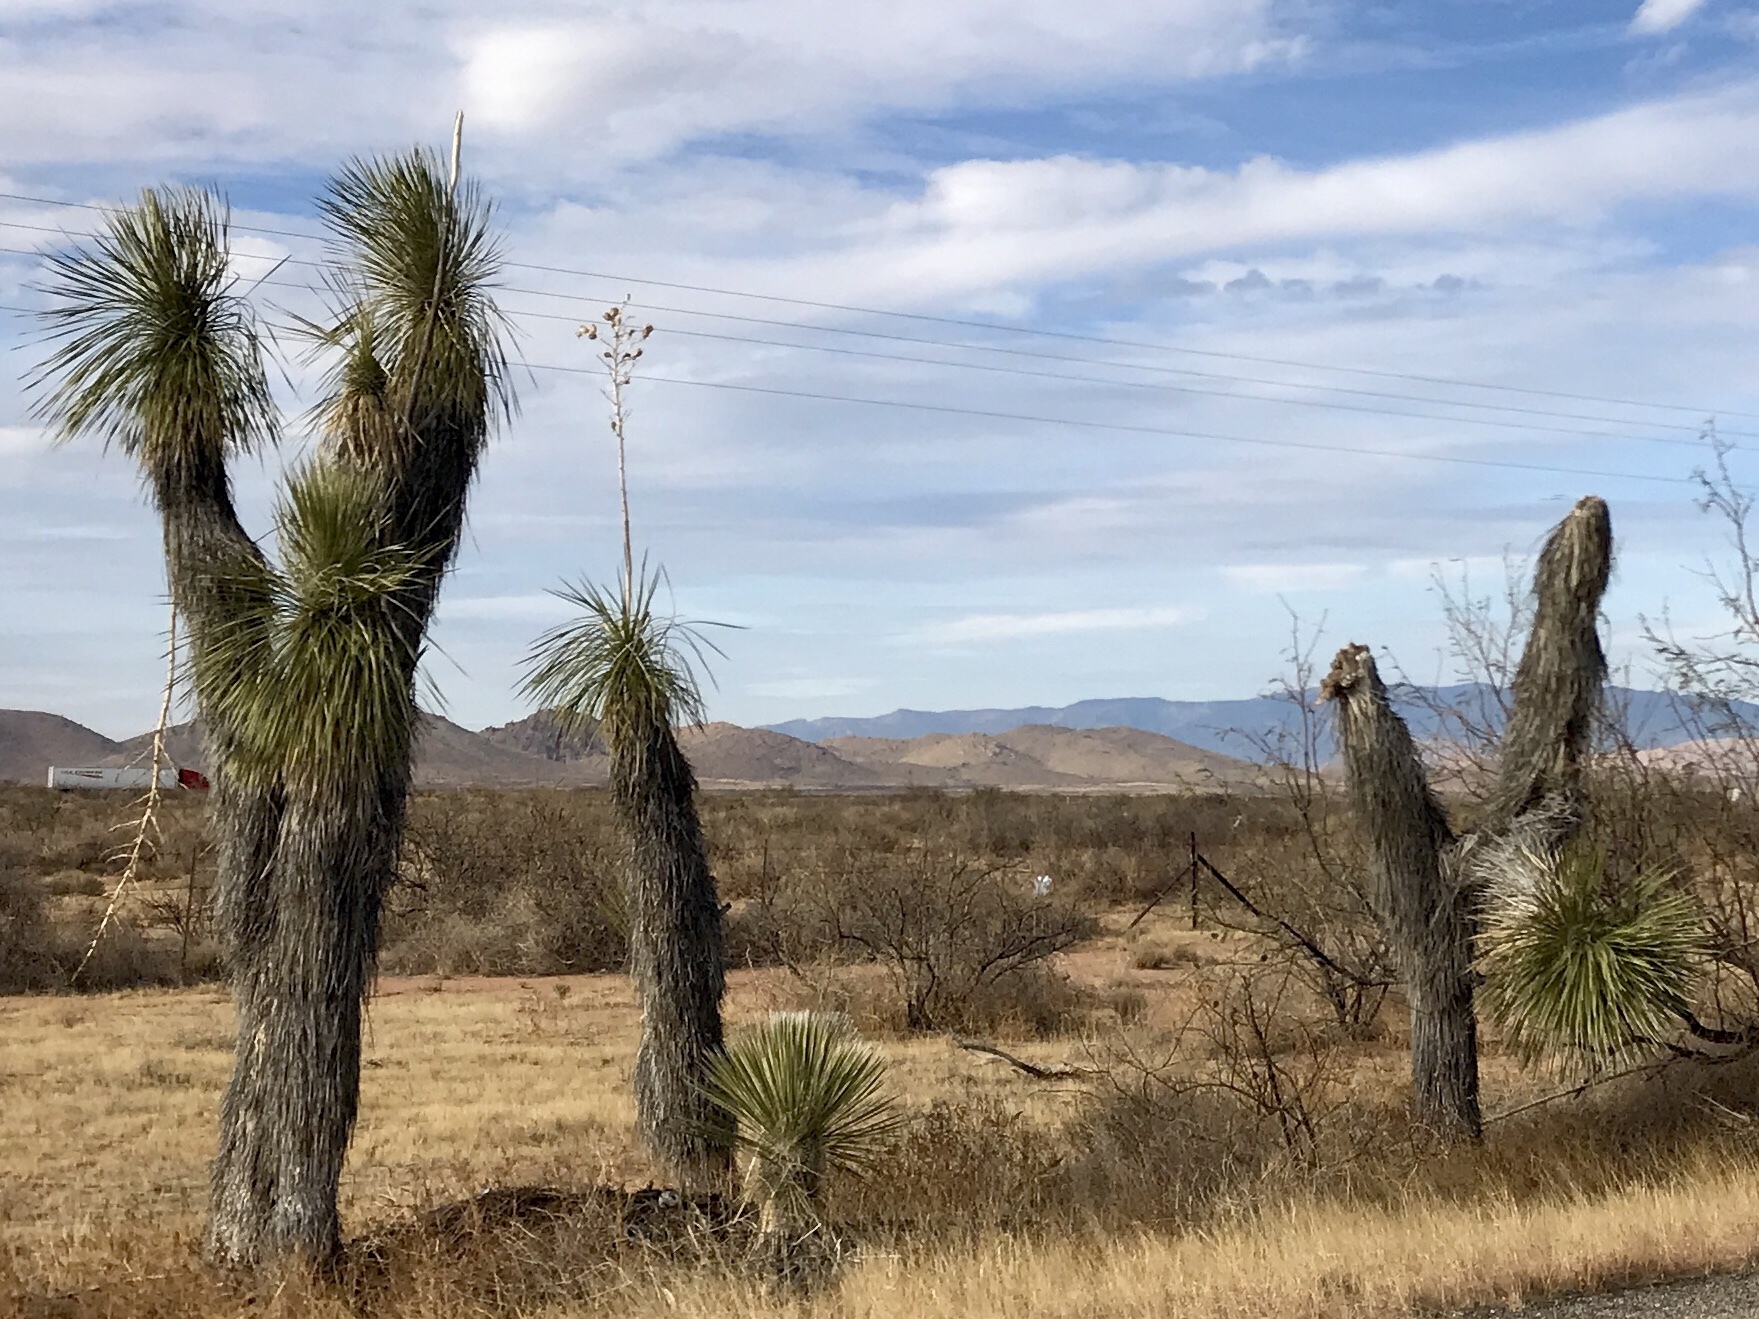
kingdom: Plantae
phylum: Tracheophyta
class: Liliopsida
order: Asparagales
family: Asparagaceae
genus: Yucca
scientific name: Yucca elata
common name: Palmella
